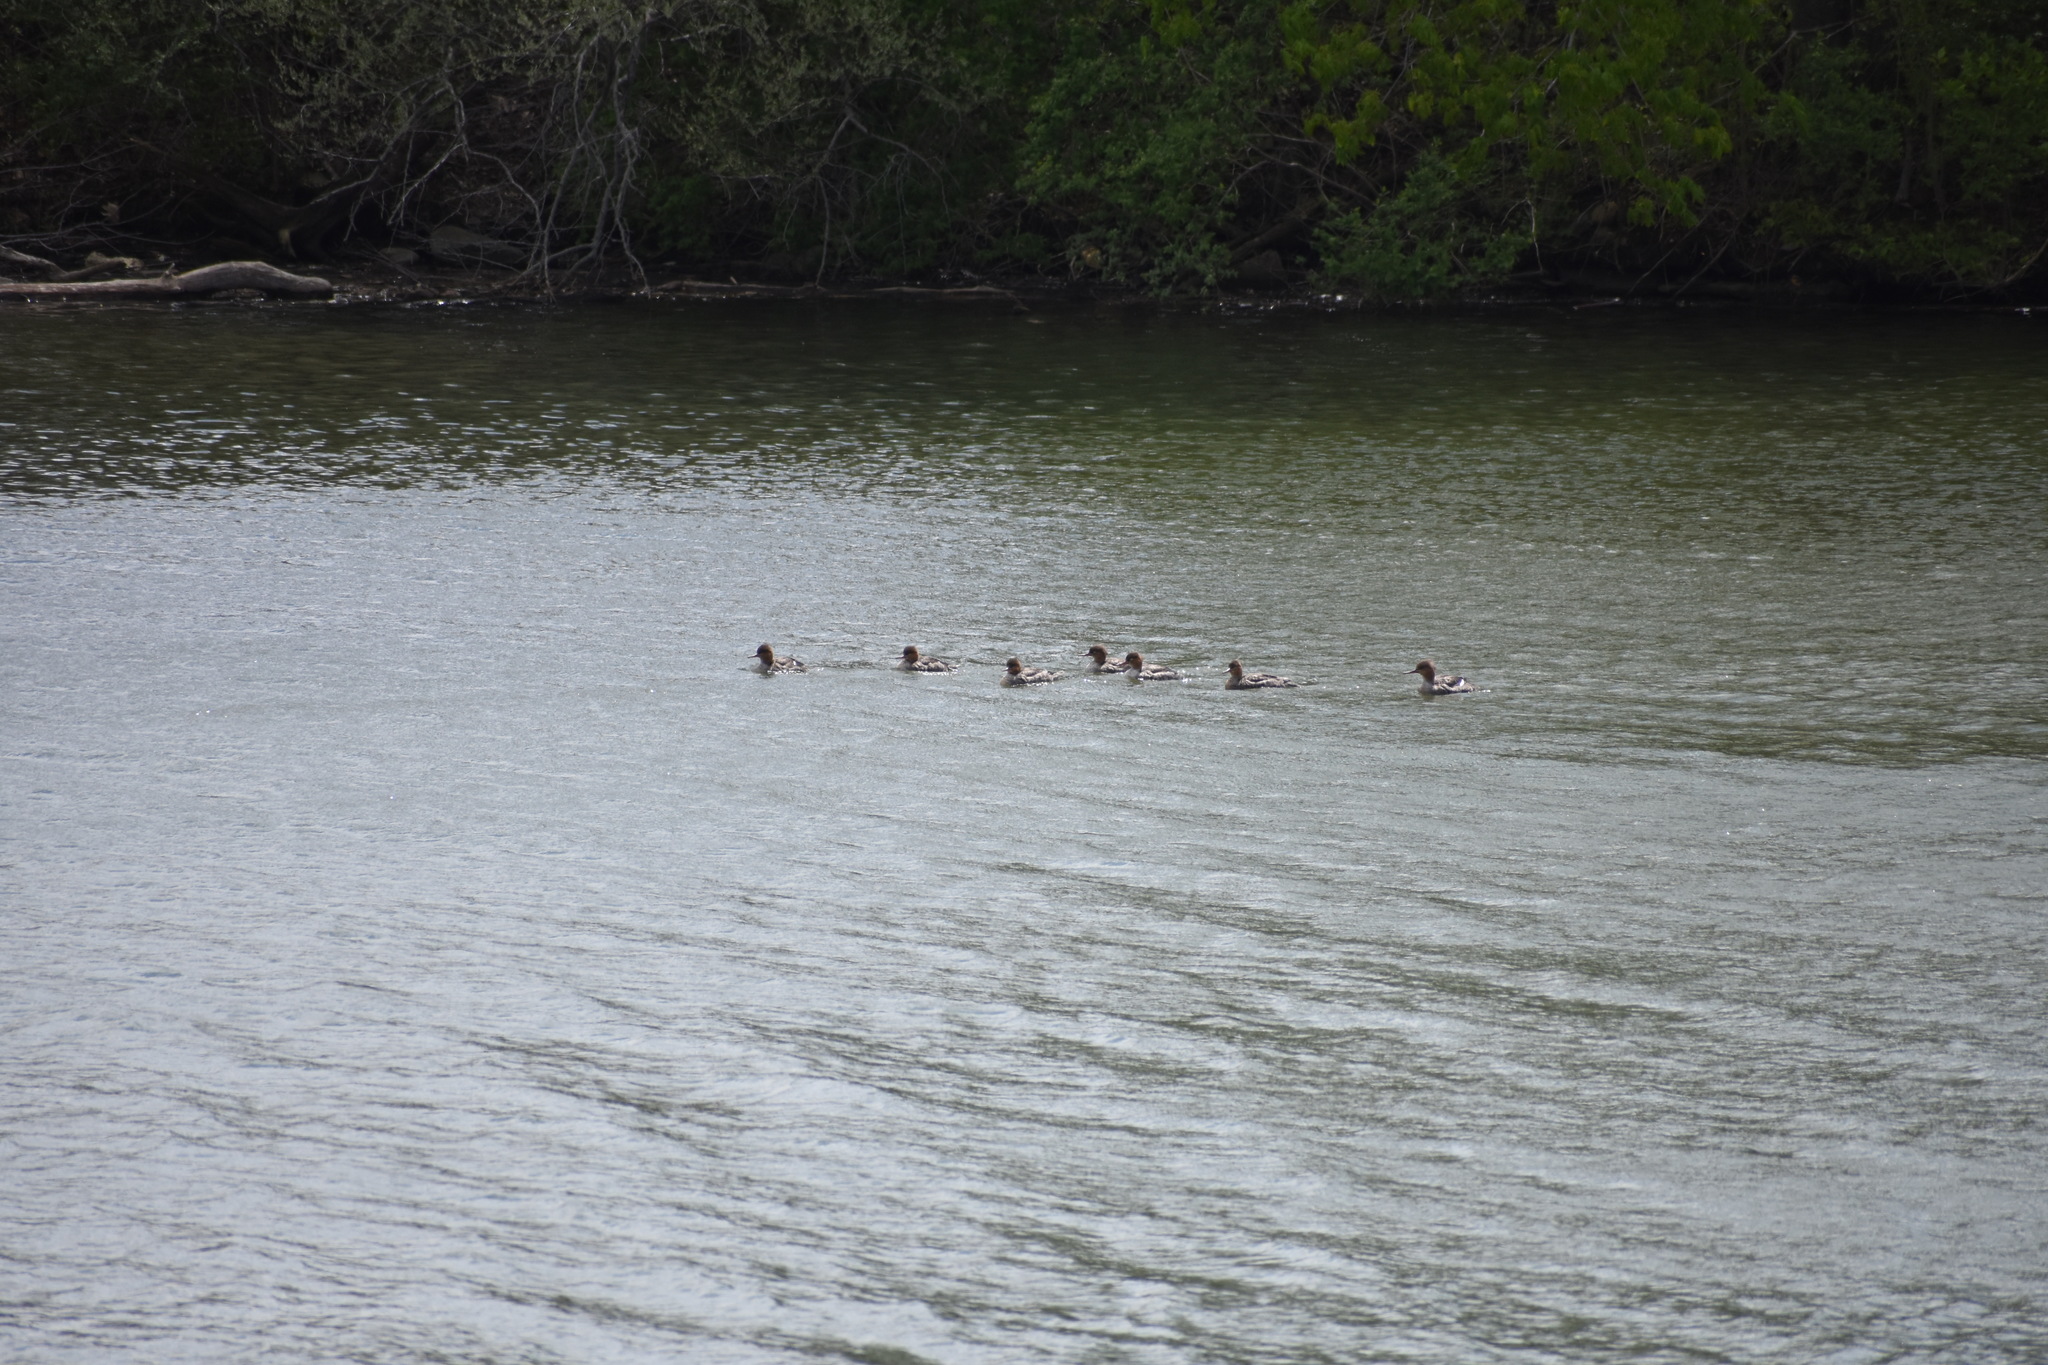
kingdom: Animalia
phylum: Chordata
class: Aves
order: Anseriformes
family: Anatidae
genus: Mergus
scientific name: Mergus serrator
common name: Red-breasted merganser
